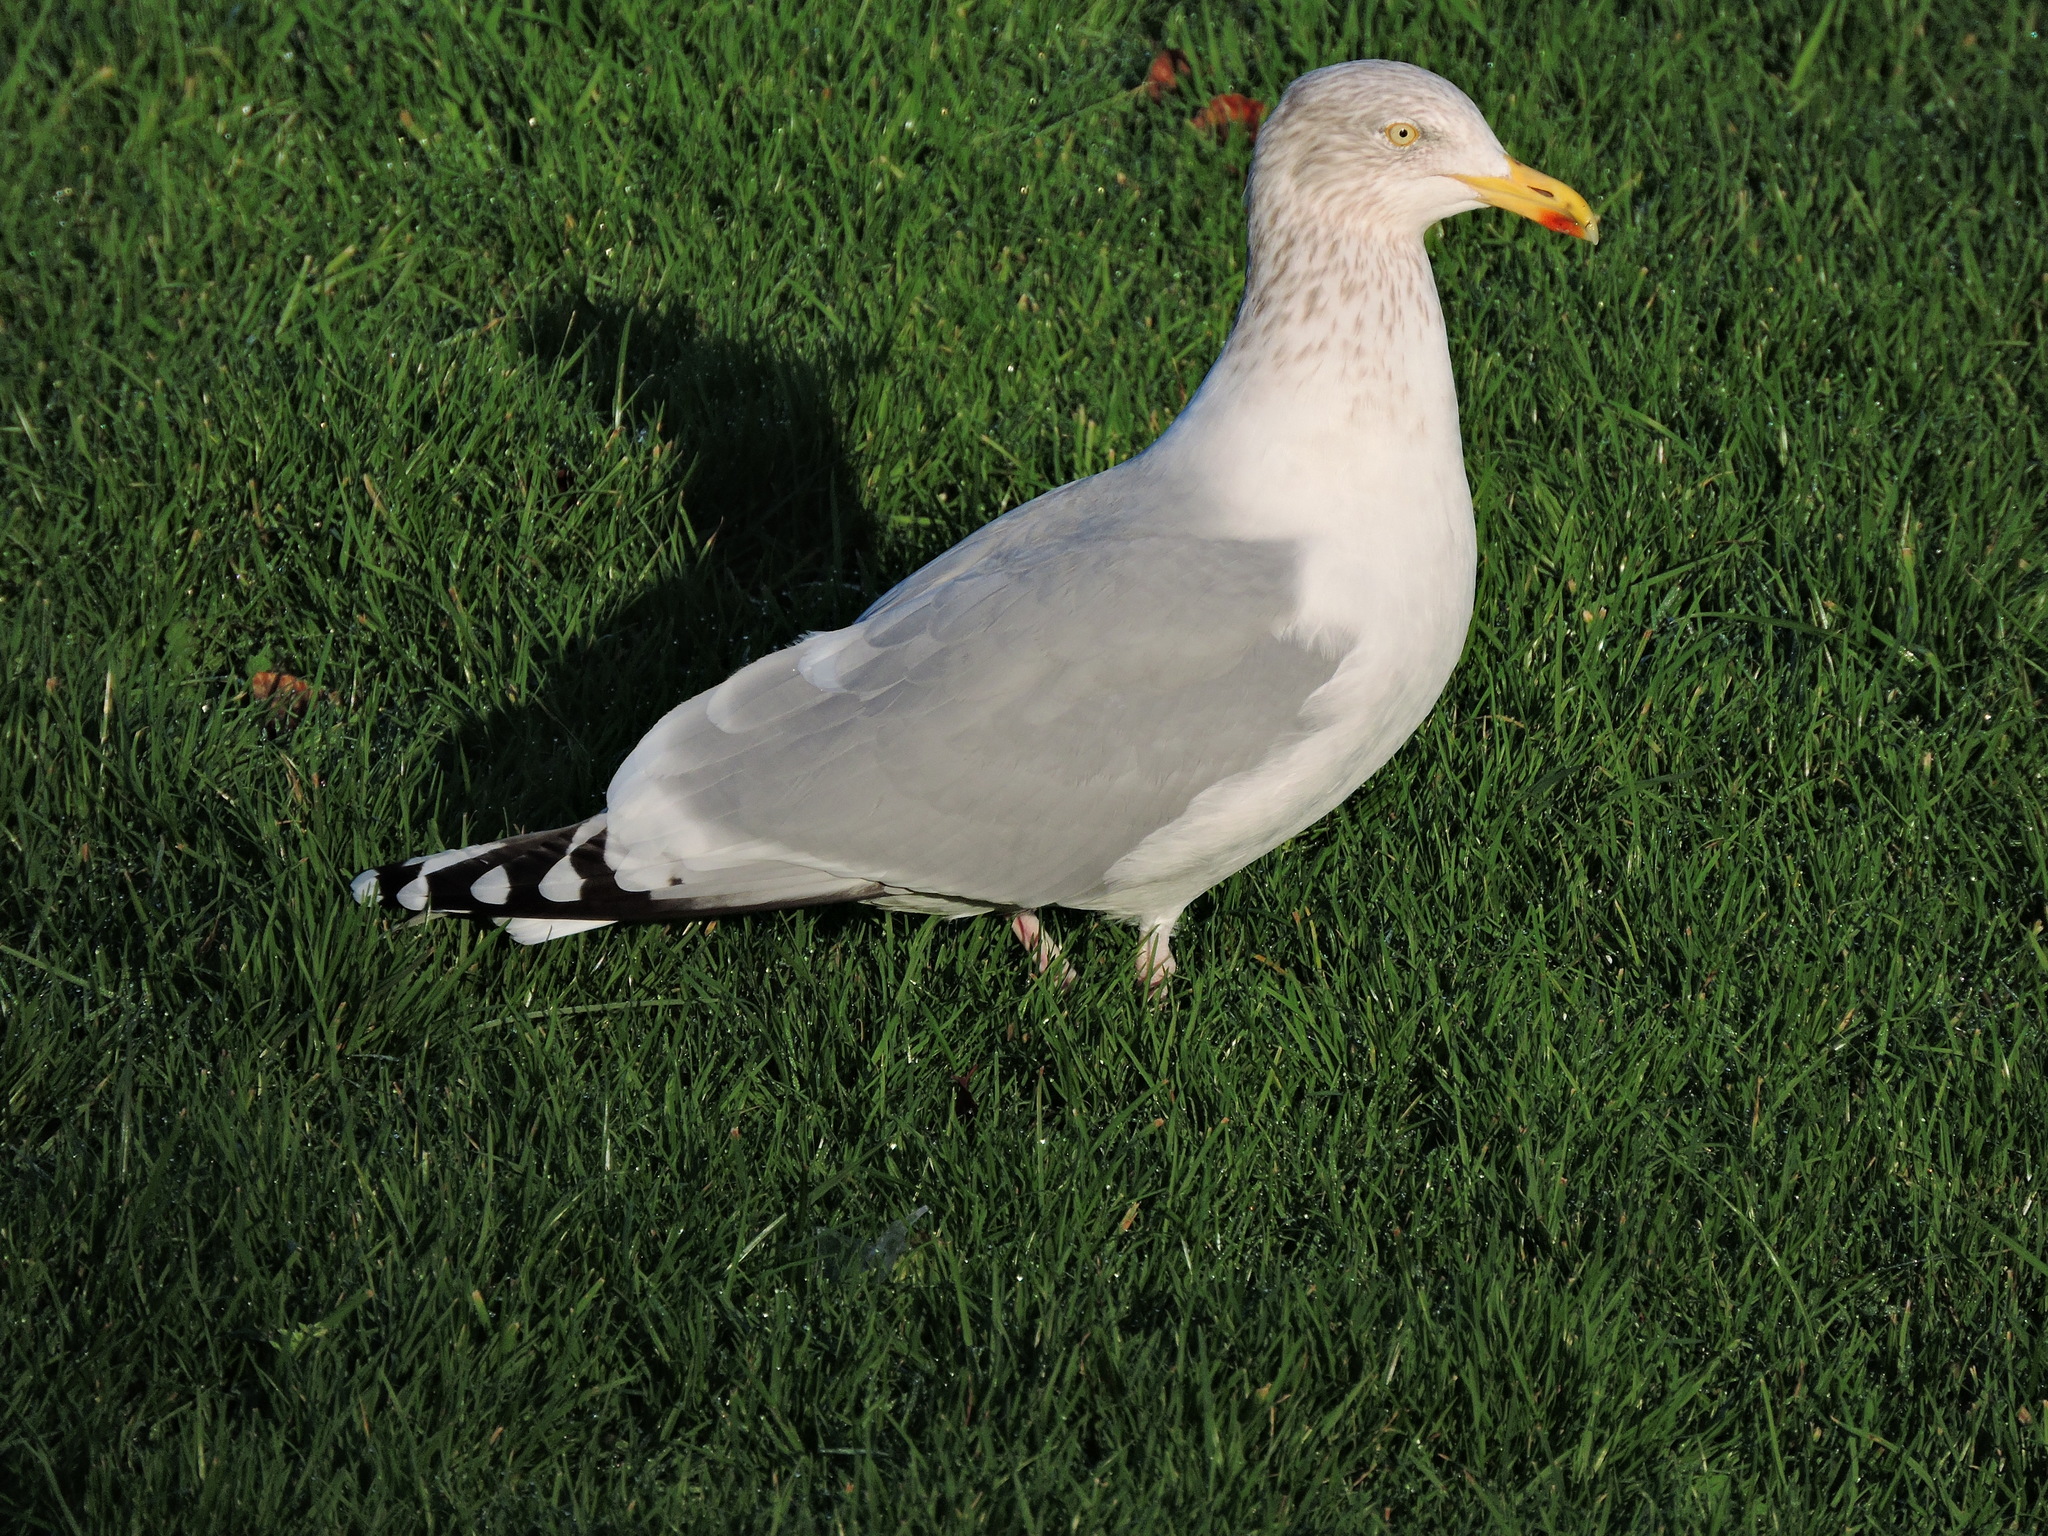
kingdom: Animalia
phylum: Chordata
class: Aves
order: Charadriiformes
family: Laridae
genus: Larus
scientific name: Larus argentatus
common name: Herring gull
